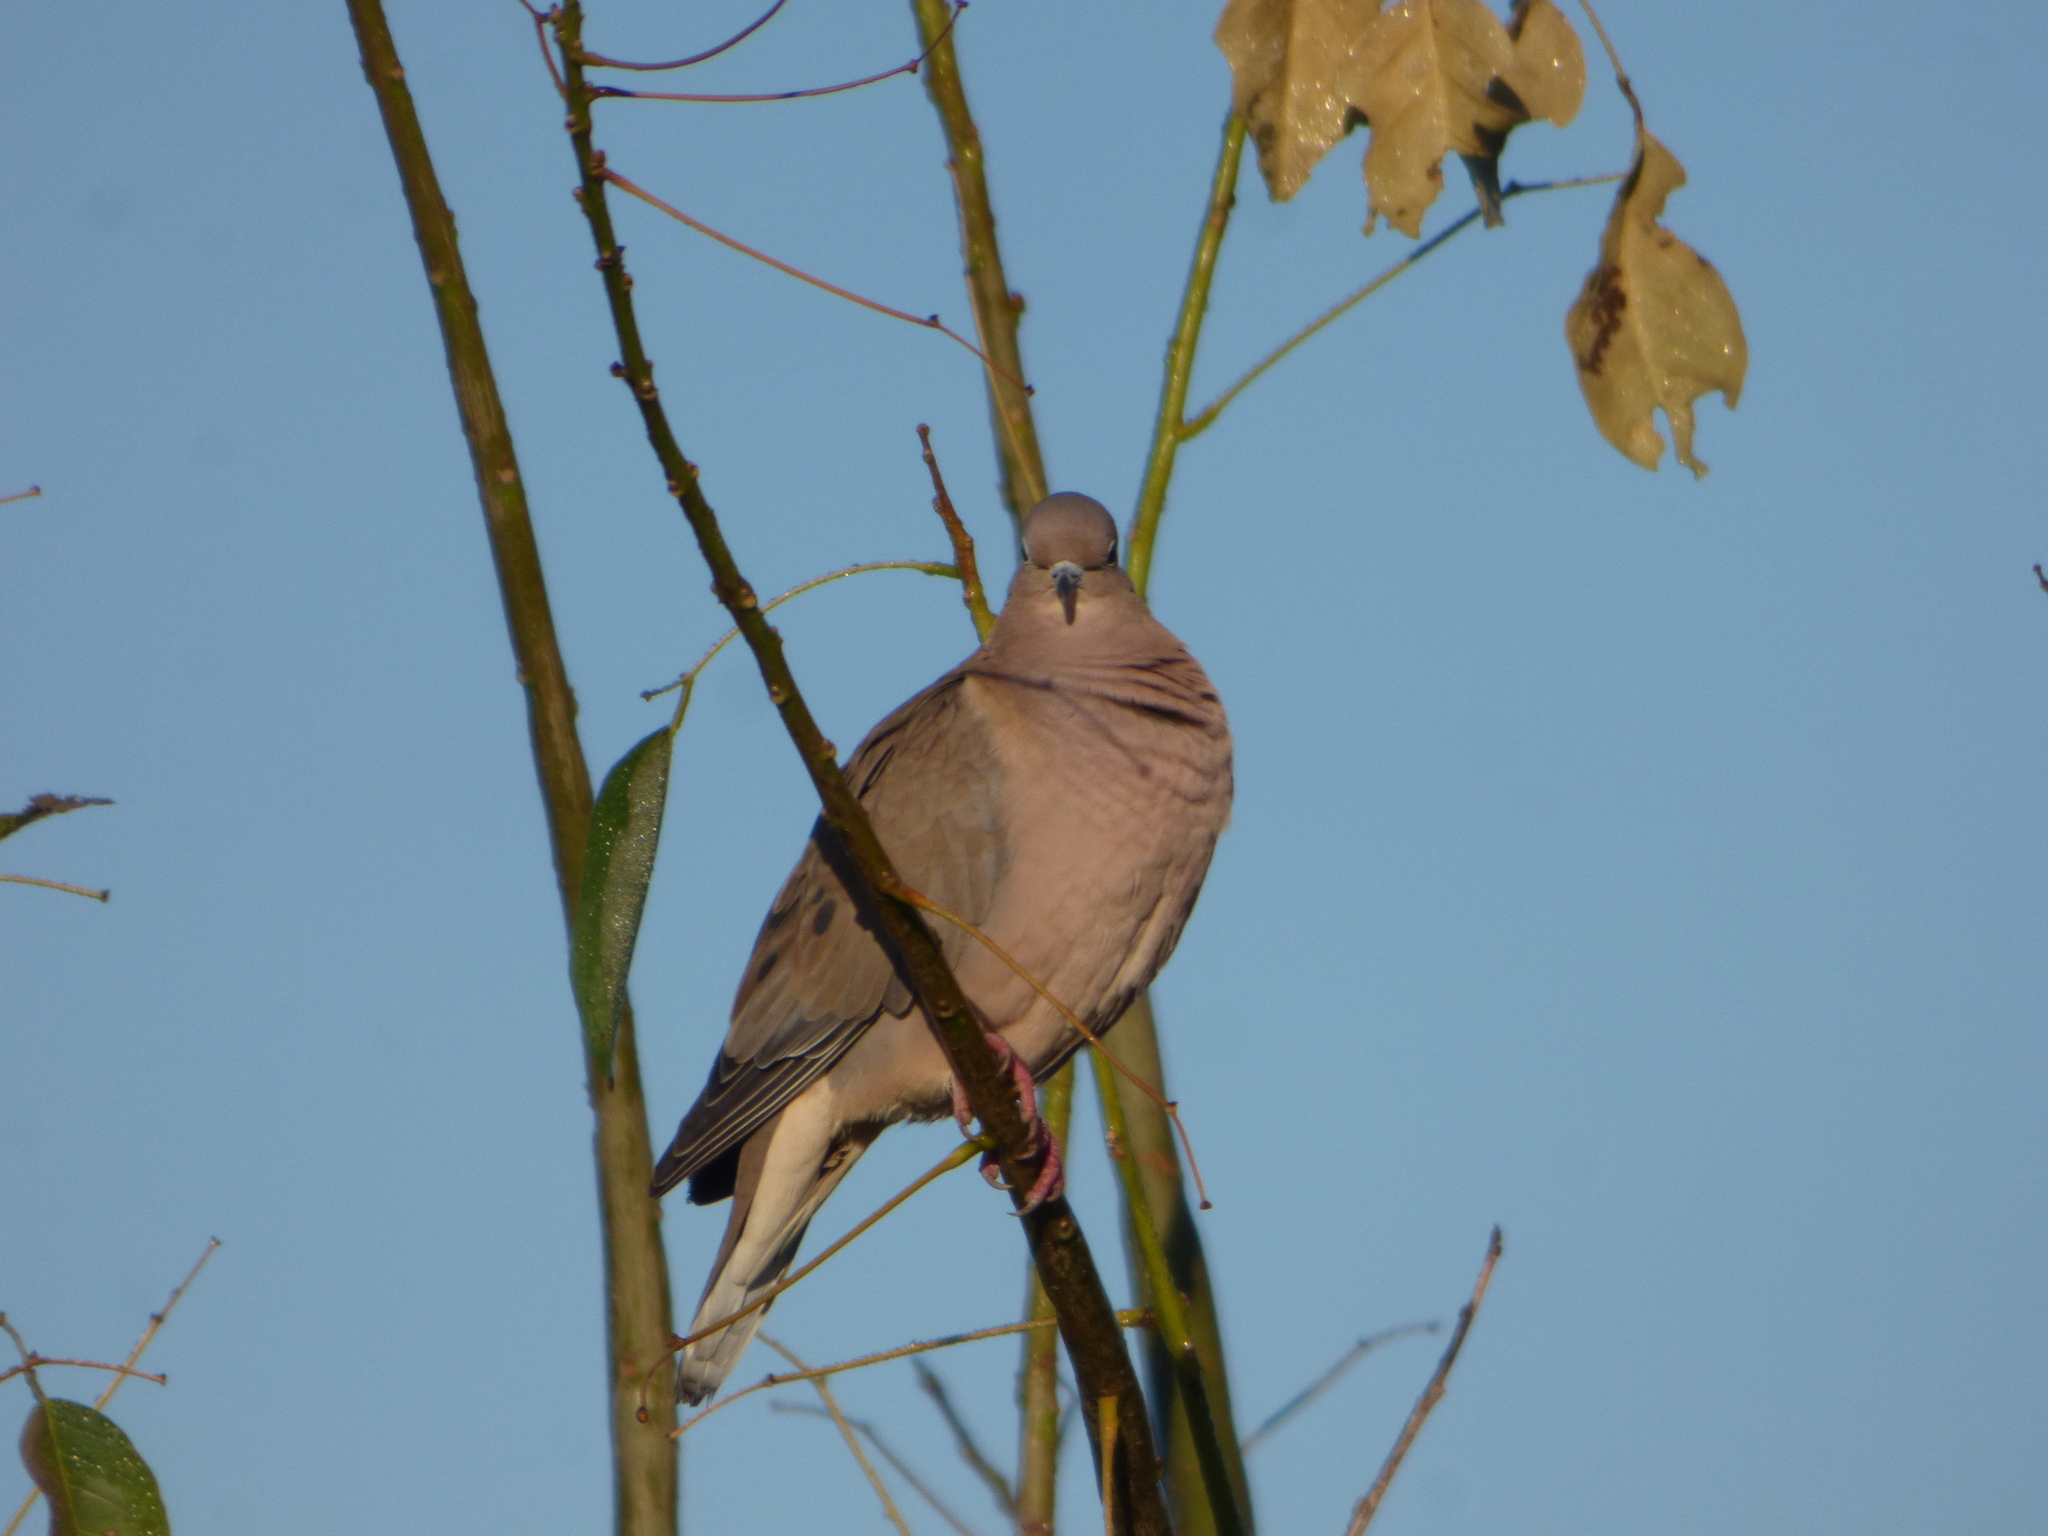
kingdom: Animalia
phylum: Chordata
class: Aves
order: Columbiformes
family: Columbidae
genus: Zenaida
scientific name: Zenaida auriculata
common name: Eared dove
